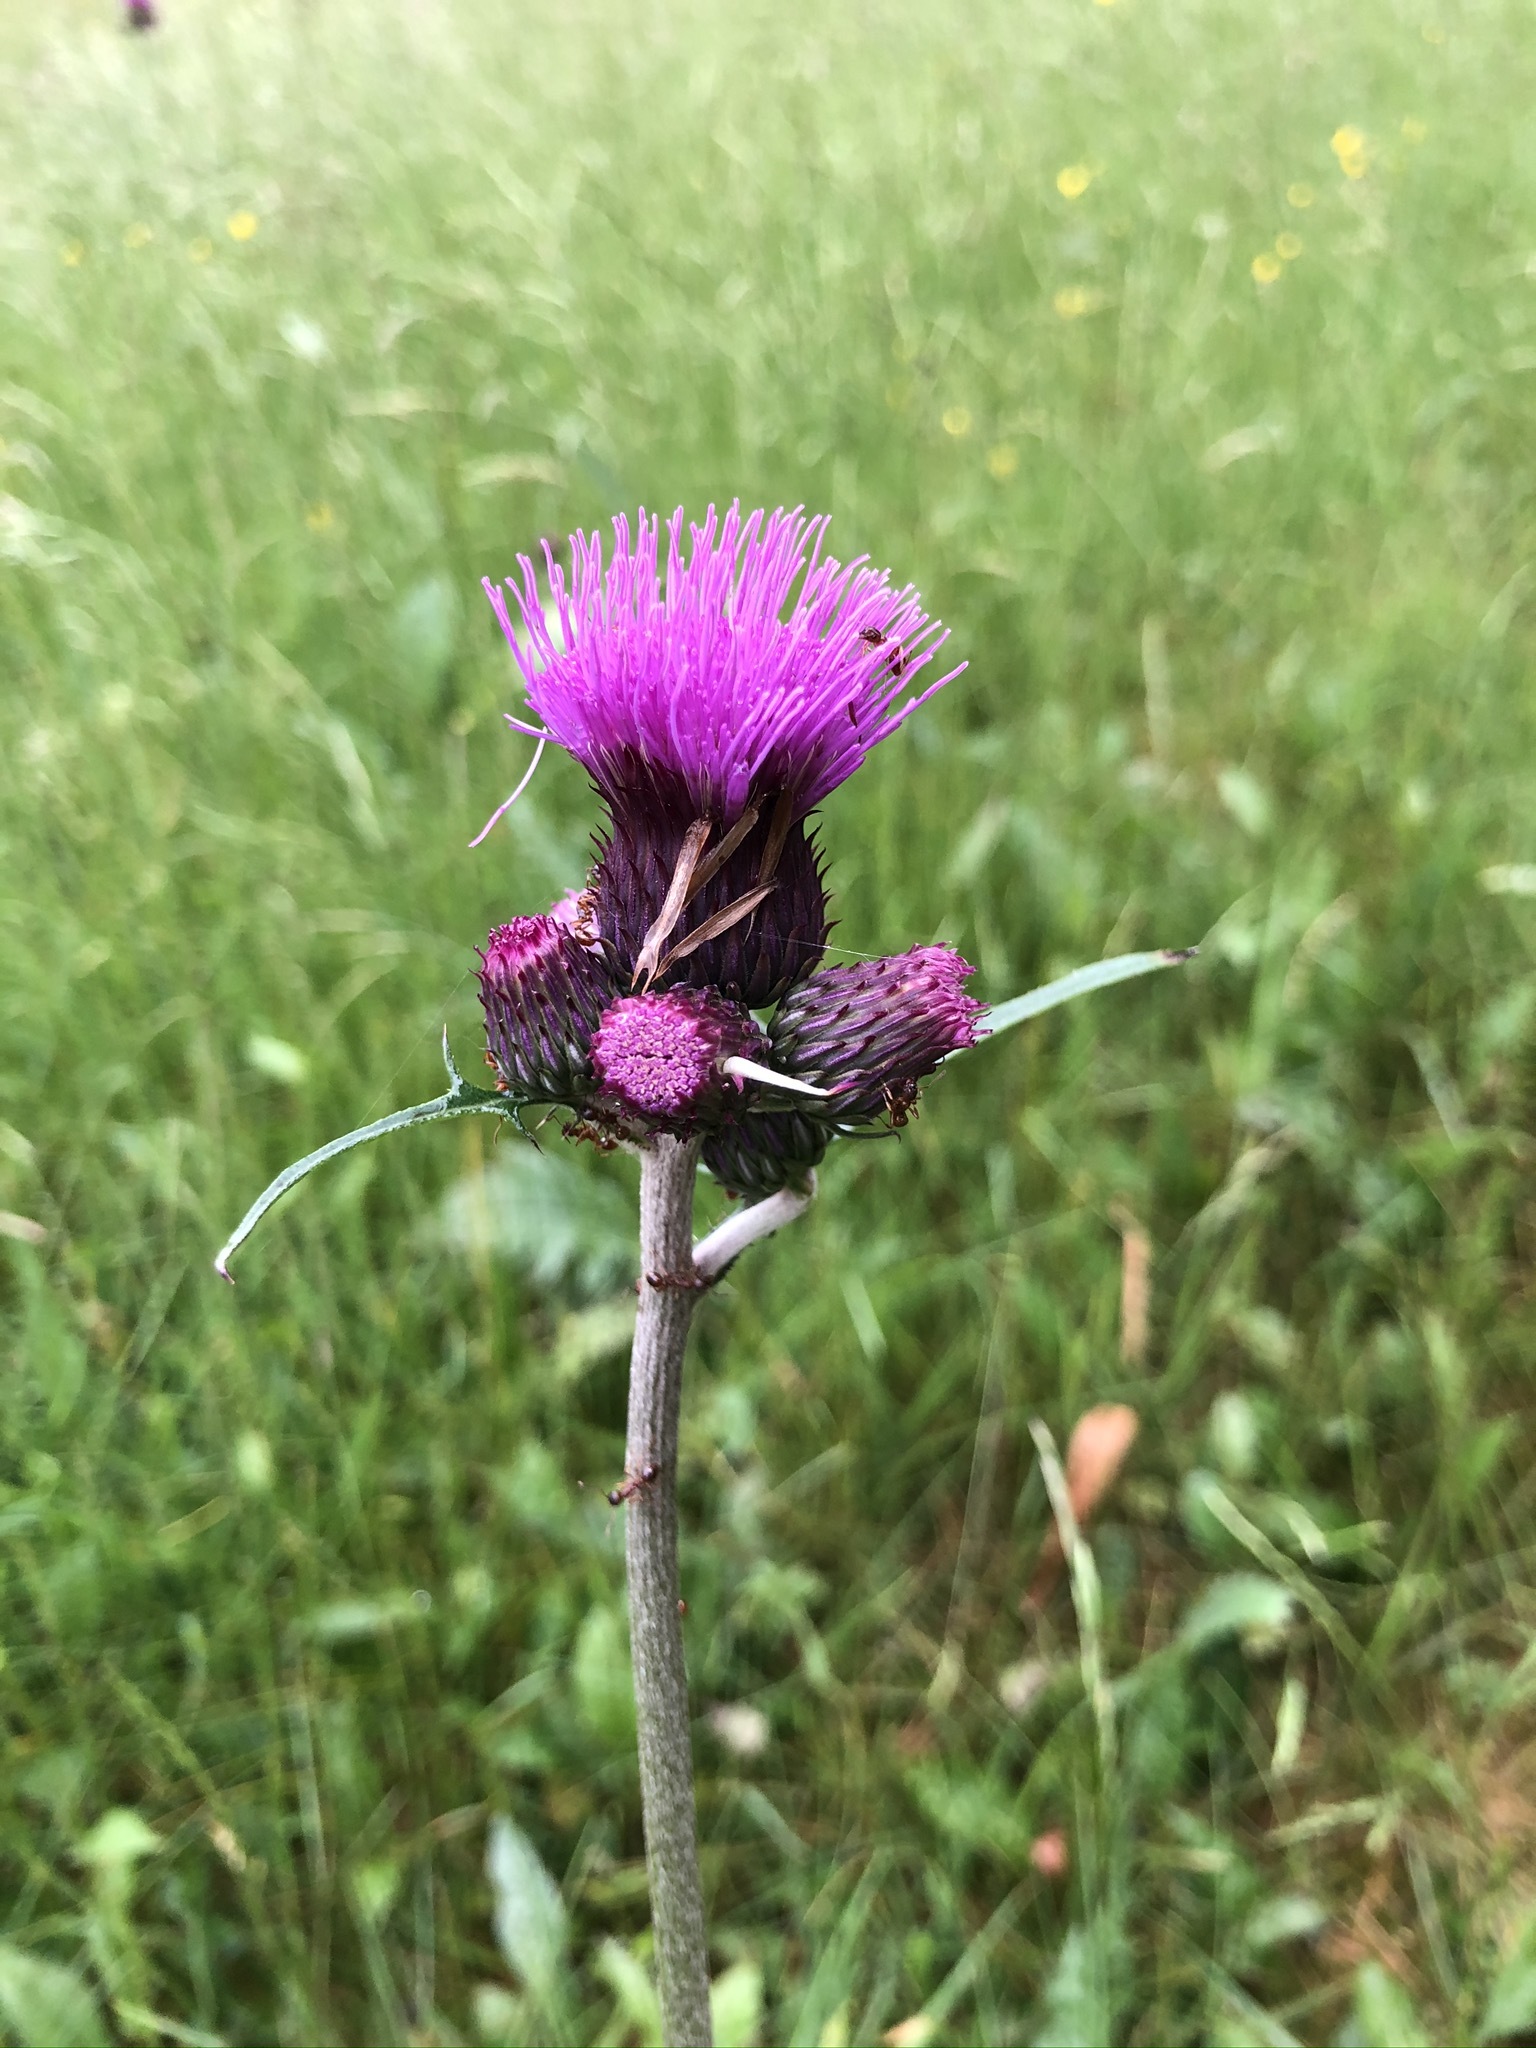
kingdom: Plantae
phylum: Tracheophyta
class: Magnoliopsida
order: Asterales
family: Asteraceae
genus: Cirsium
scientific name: Cirsium rivulare
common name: Brook thistle
